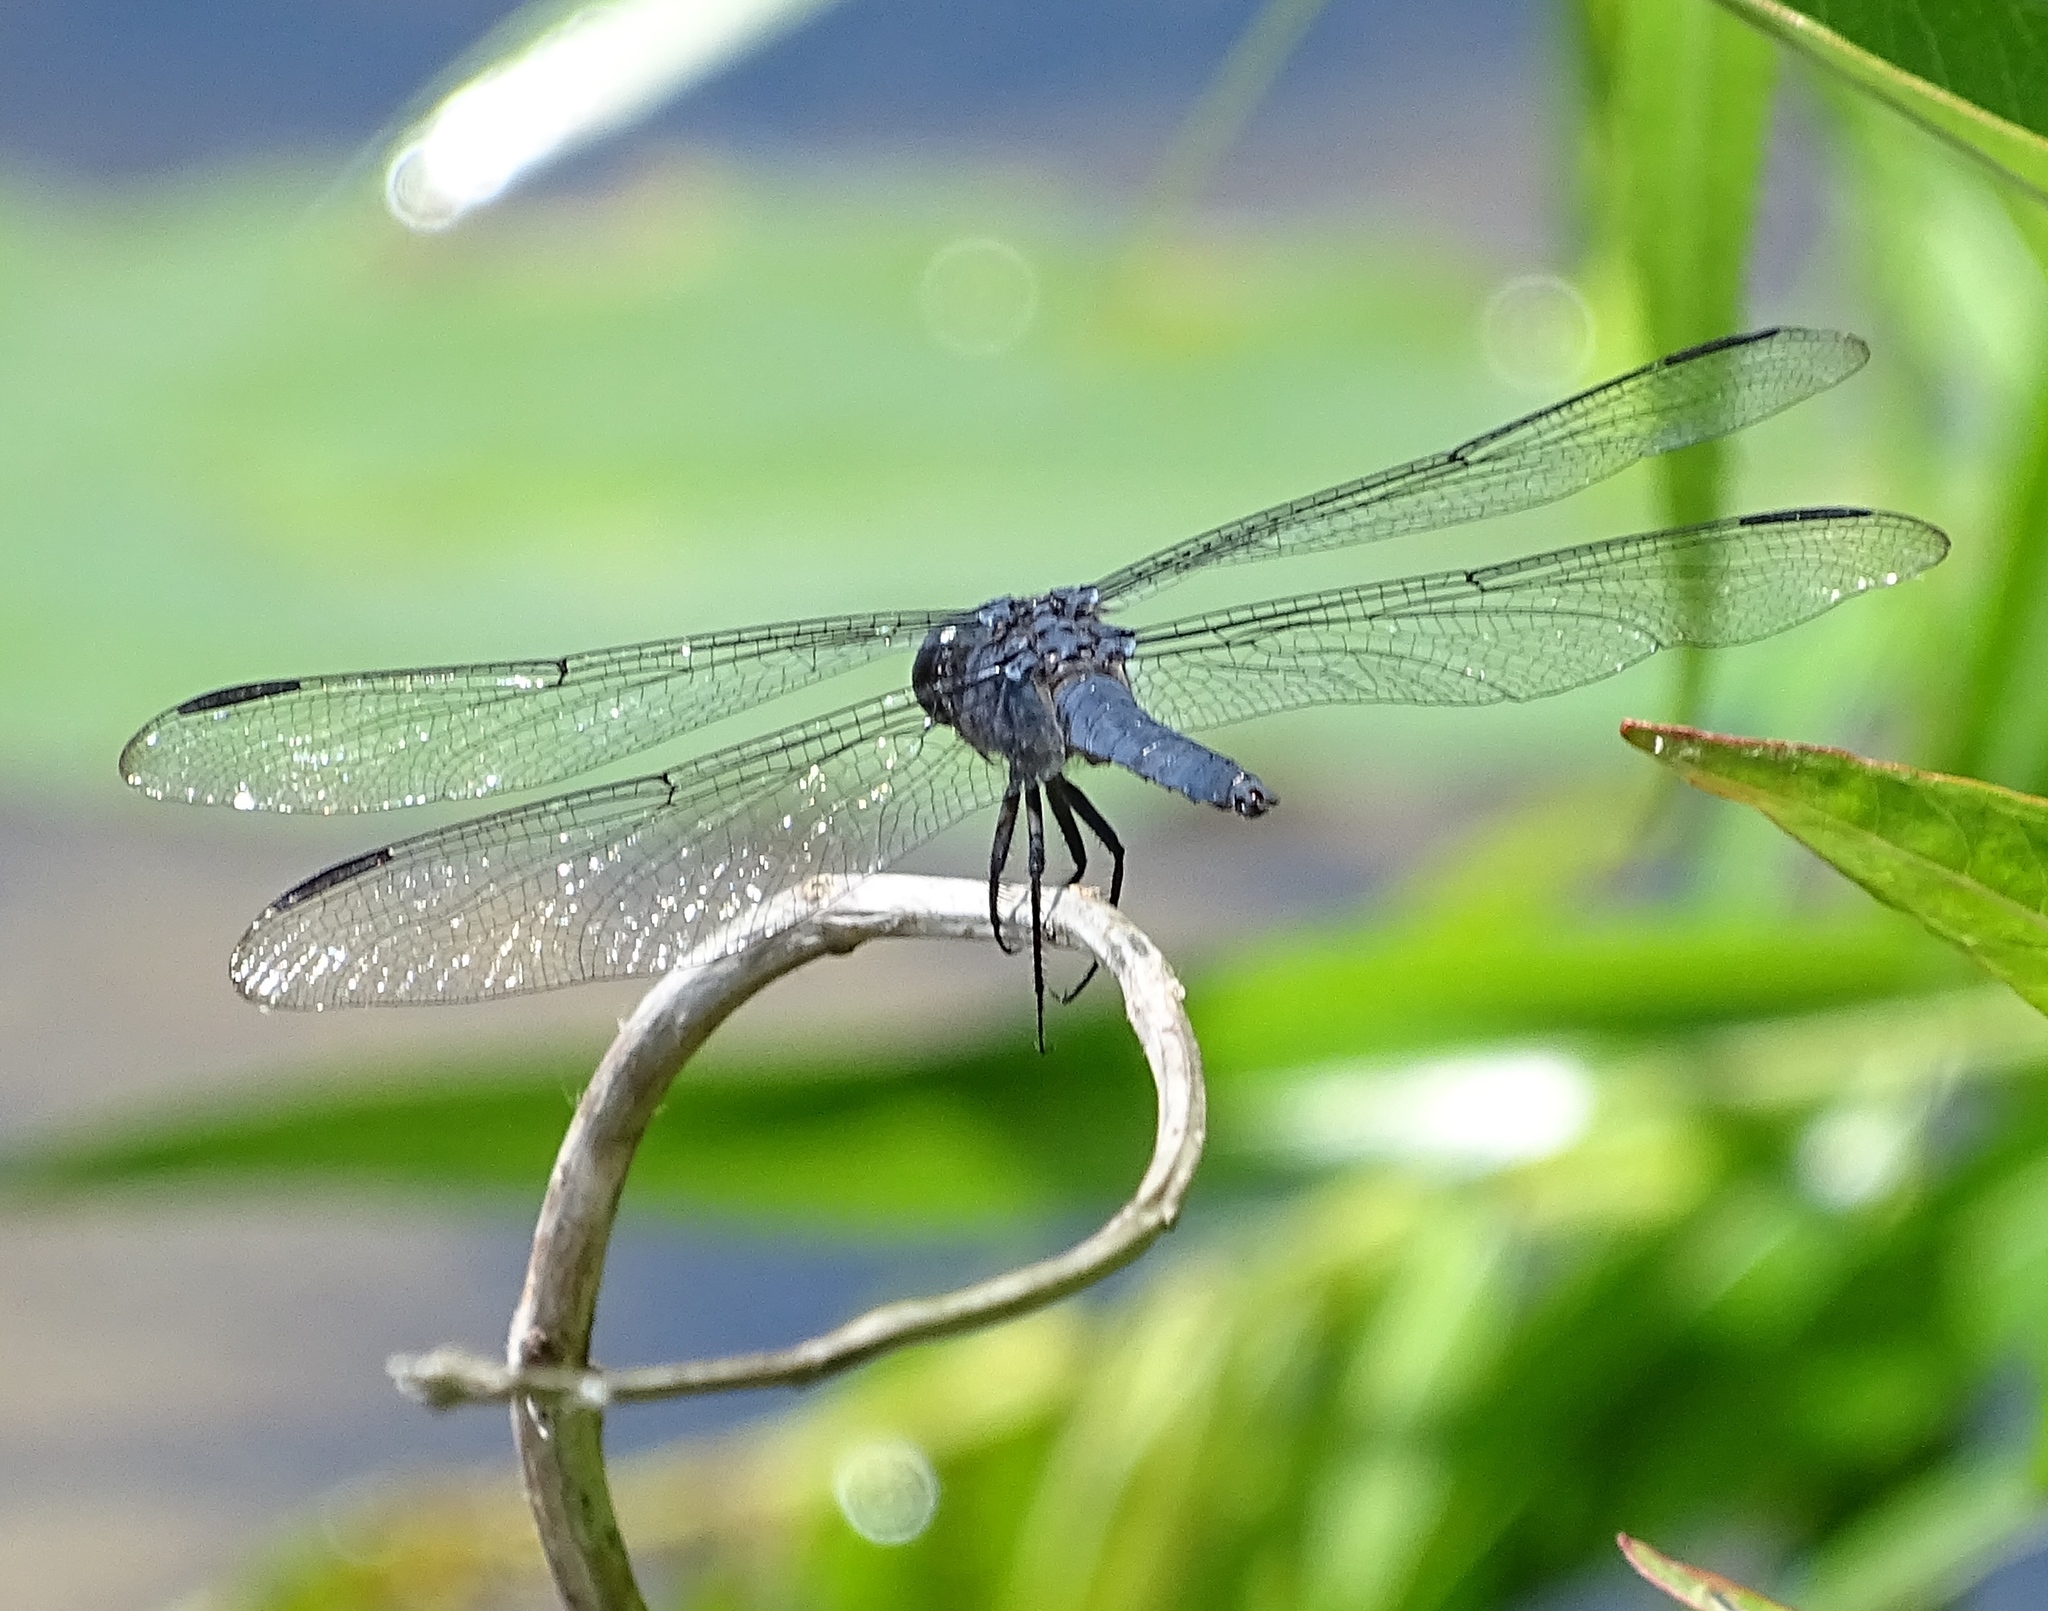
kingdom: Animalia
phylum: Arthropoda
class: Insecta
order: Odonata
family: Libellulidae
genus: Libellula
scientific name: Libellula incesta
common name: Slaty skimmer
